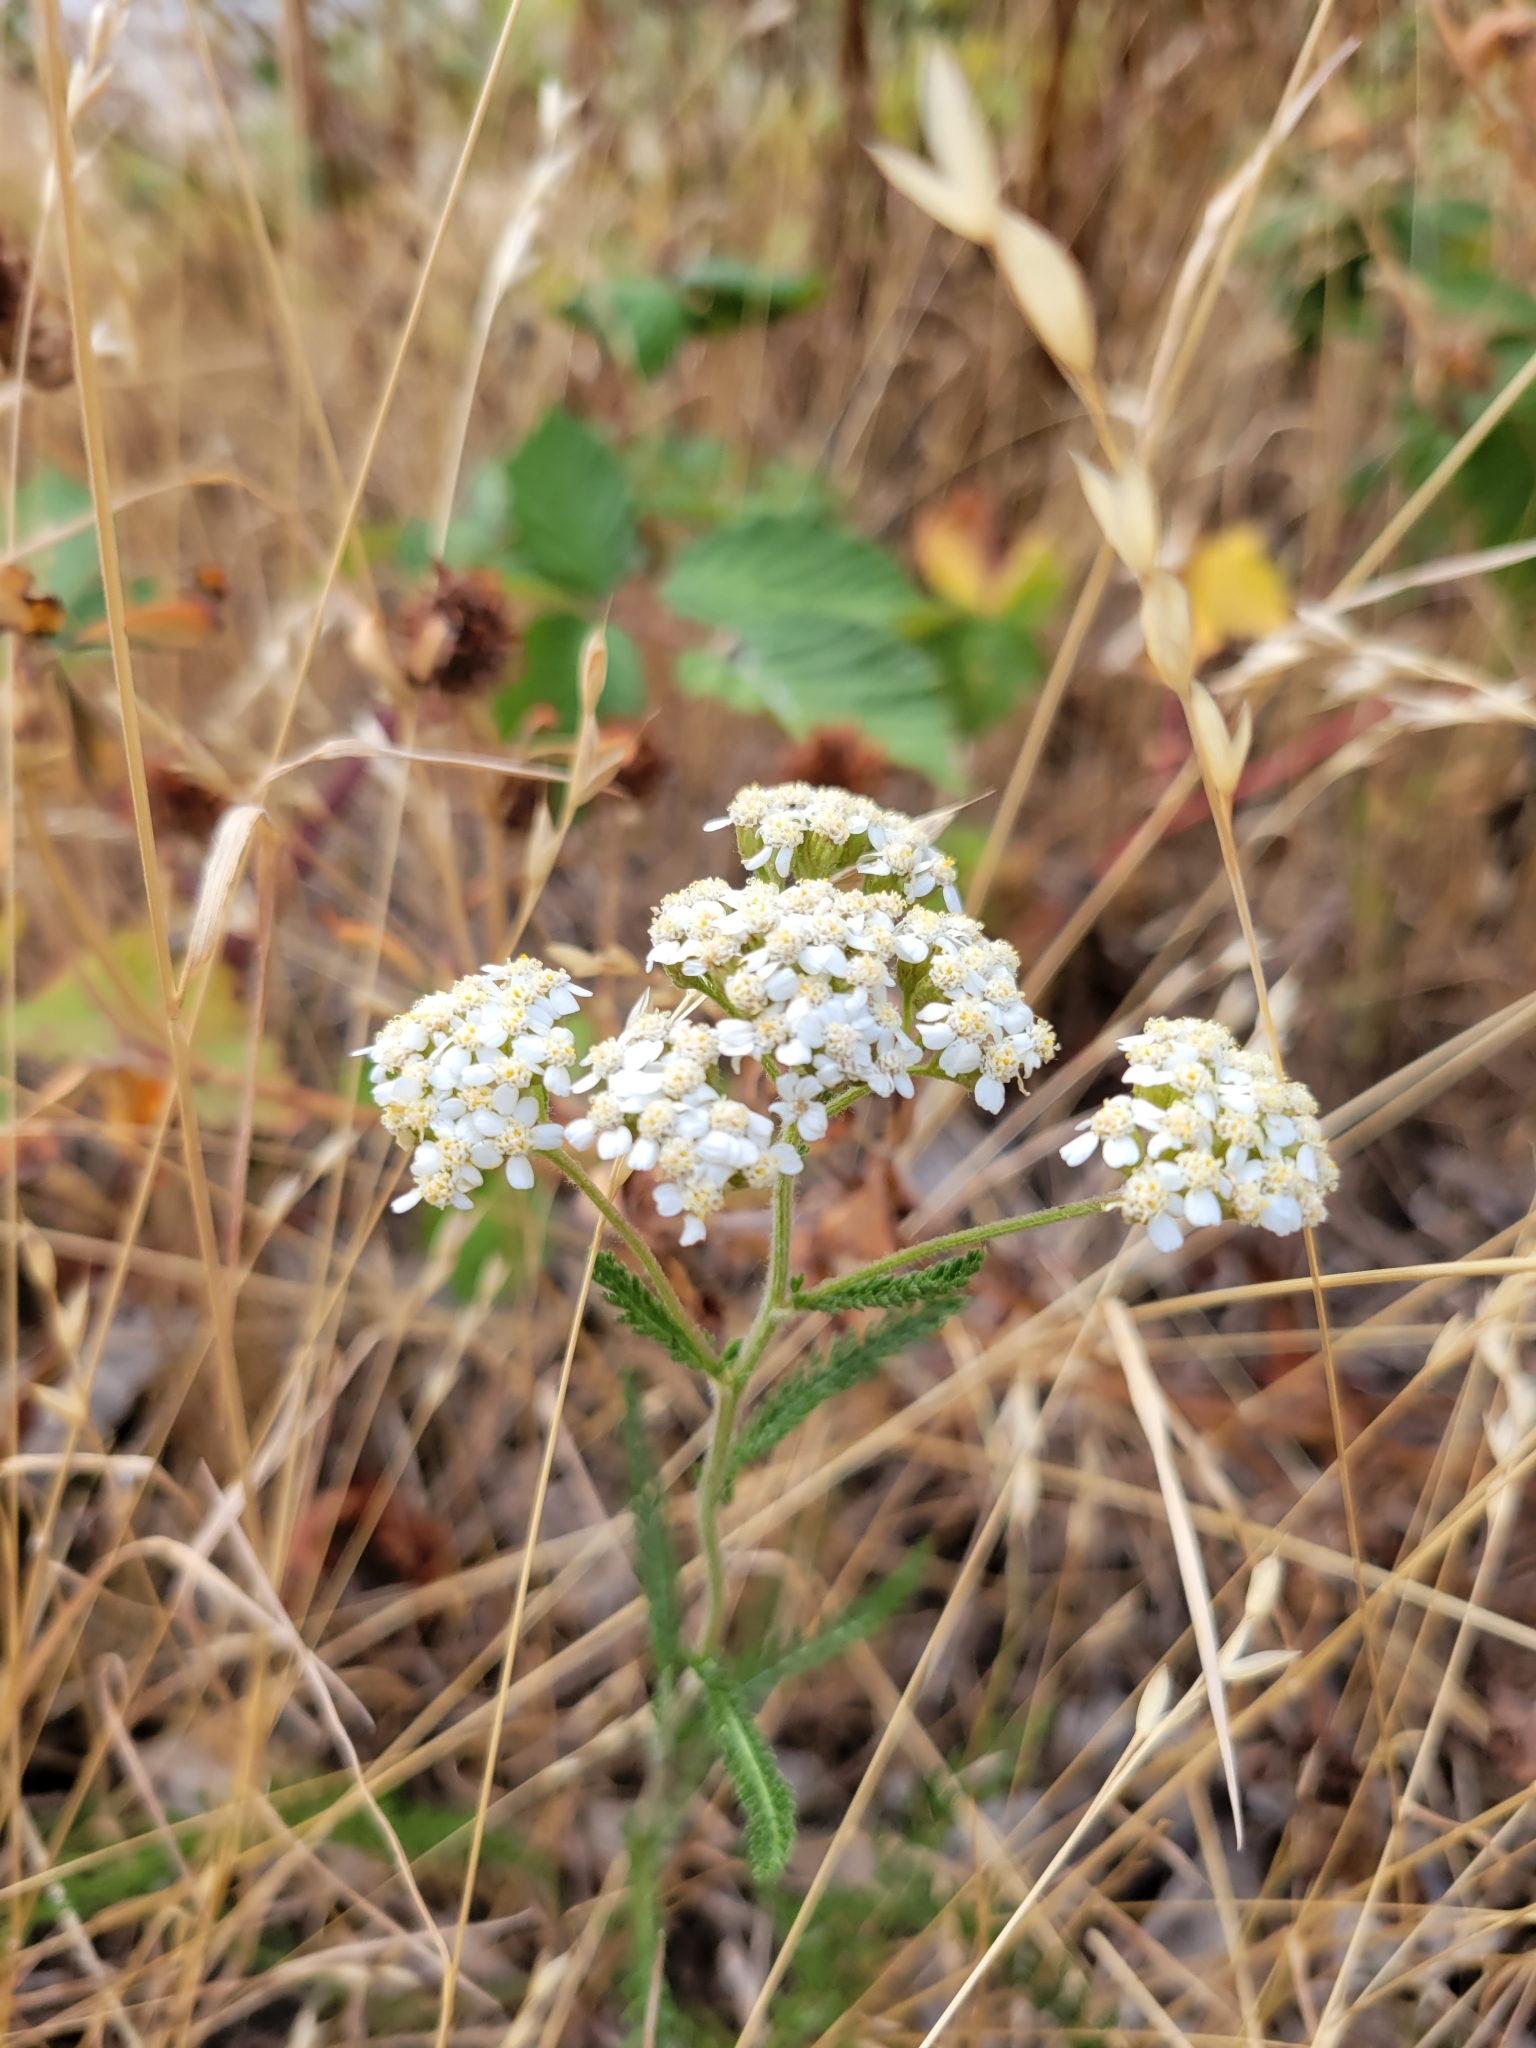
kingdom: Plantae
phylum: Tracheophyta
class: Magnoliopsida
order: Asterales
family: Asteraceae
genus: Achillea
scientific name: Achillea millefolium
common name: Yarrow
